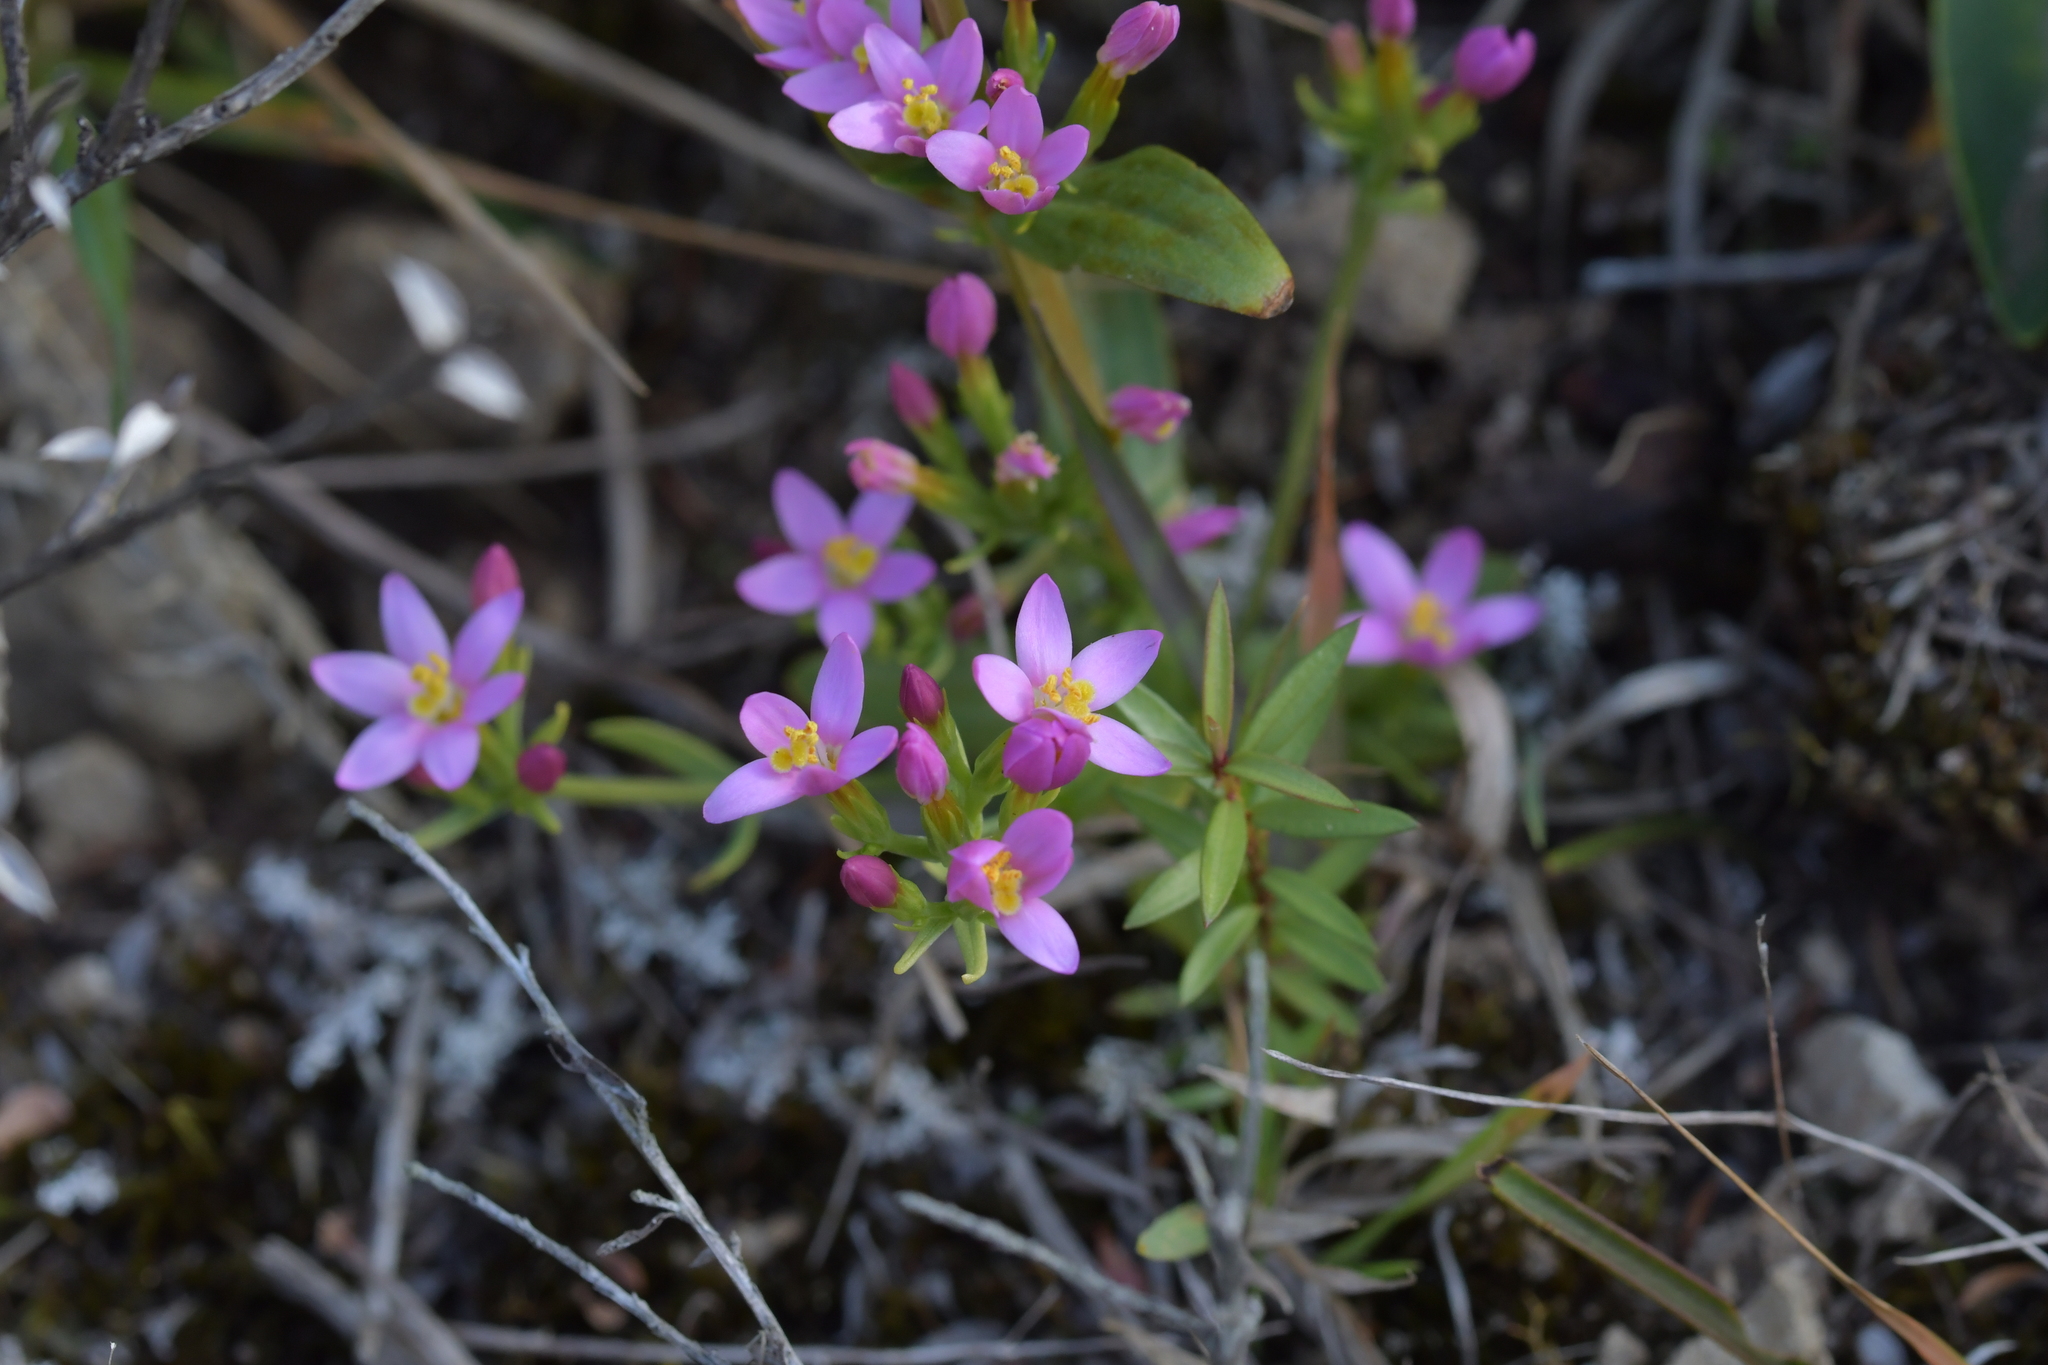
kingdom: Plantae
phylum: Tracheophyta
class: Magnoliopsida
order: Gentianales
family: Gentianaceae
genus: Centaurium
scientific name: Centaurium erythraea
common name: Common centaury
